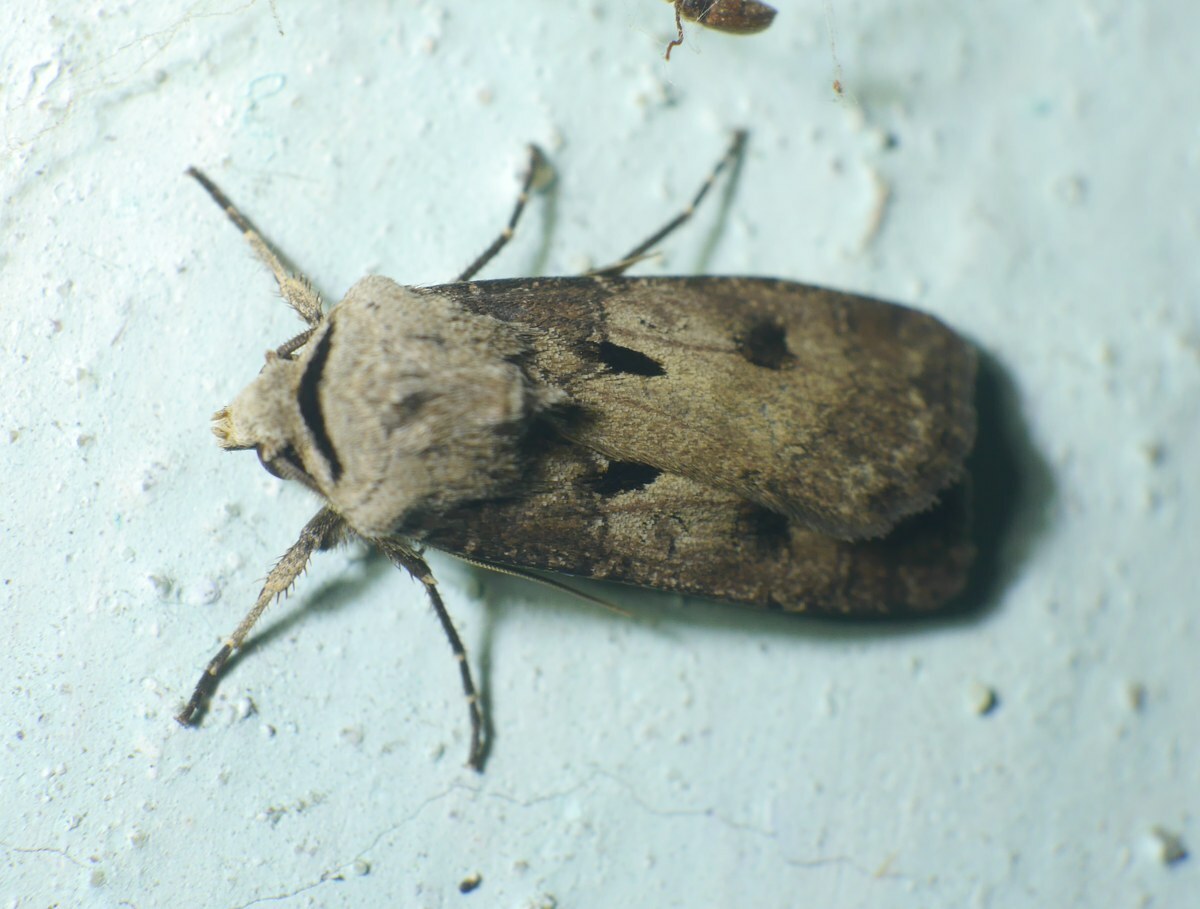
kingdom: Animalia
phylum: Arthropoda
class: Insecta
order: Lepidoptera
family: Noctuidae
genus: Agrotis
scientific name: Agrotis exclamationis
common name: Heart and dart
